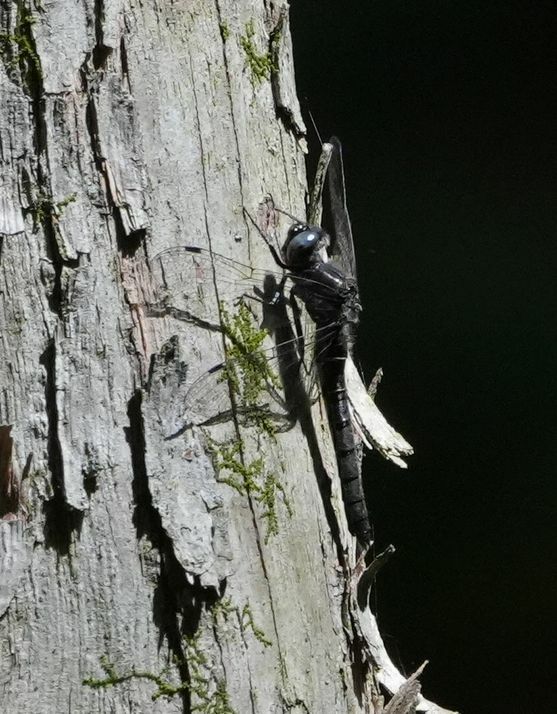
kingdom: Animalia
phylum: Arthropoda
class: Insecta
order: Odonata
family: Corduliidae
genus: Williamsonia
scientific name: Williamsonia fletcheri
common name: Ebony boghaunter
